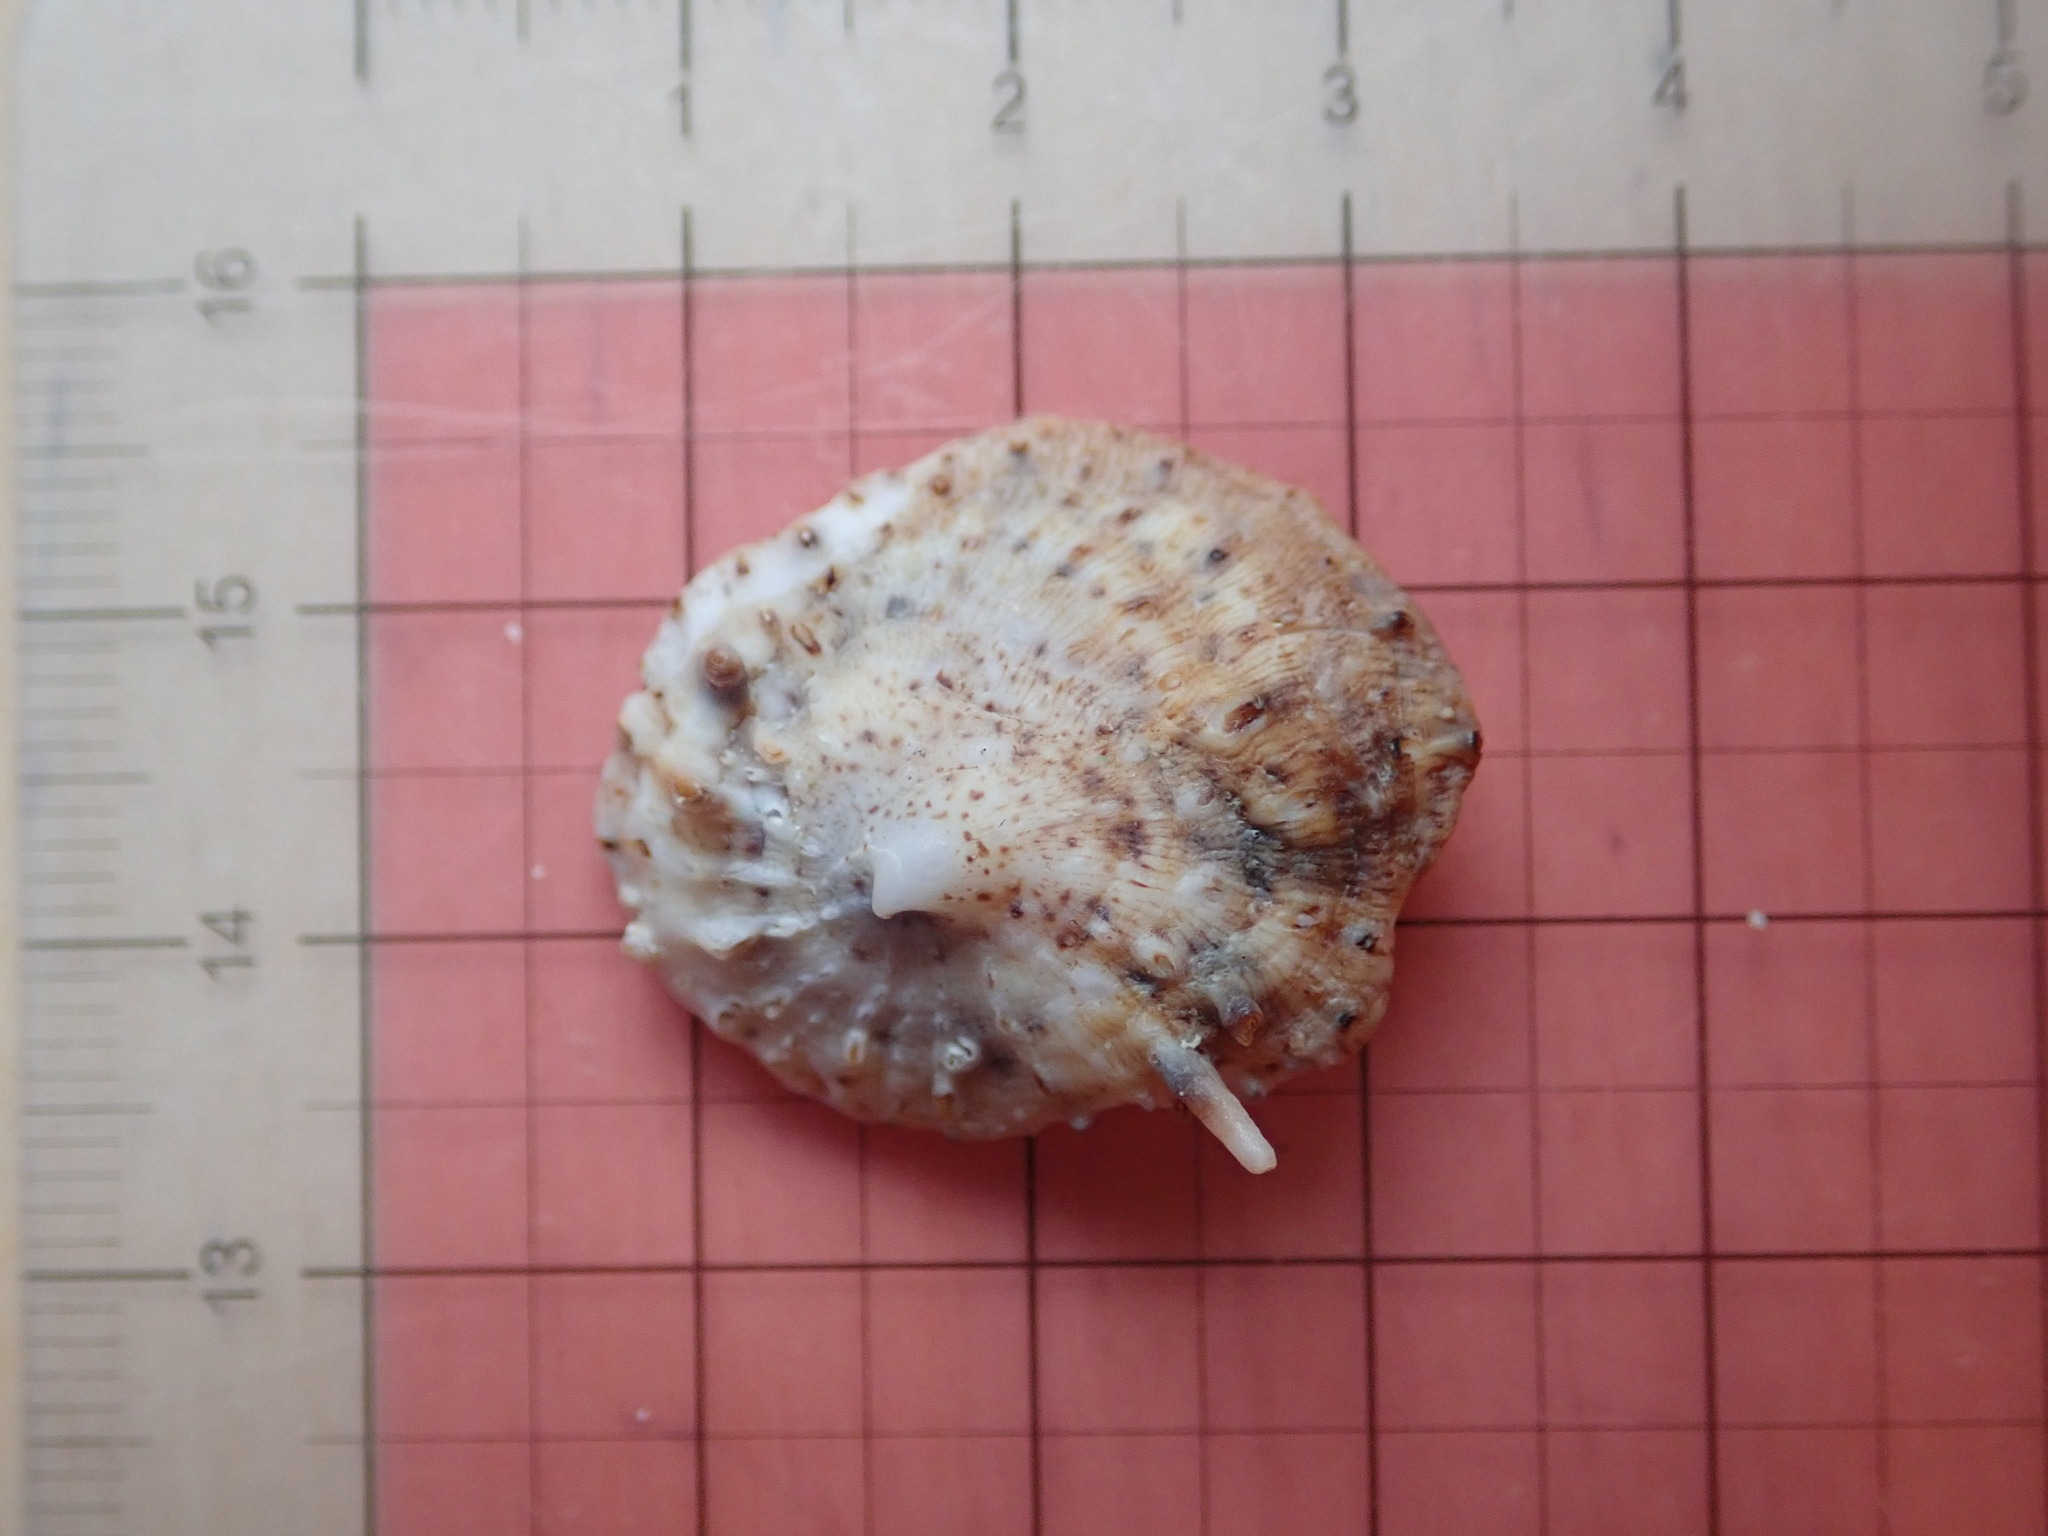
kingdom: Animalia
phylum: Mollusca
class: Gastropoda
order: Littorinimorpha
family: Calyptraeidae
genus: Crucibulum
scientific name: Crucibulum spinosum
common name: Spiny cup-and-saucer
